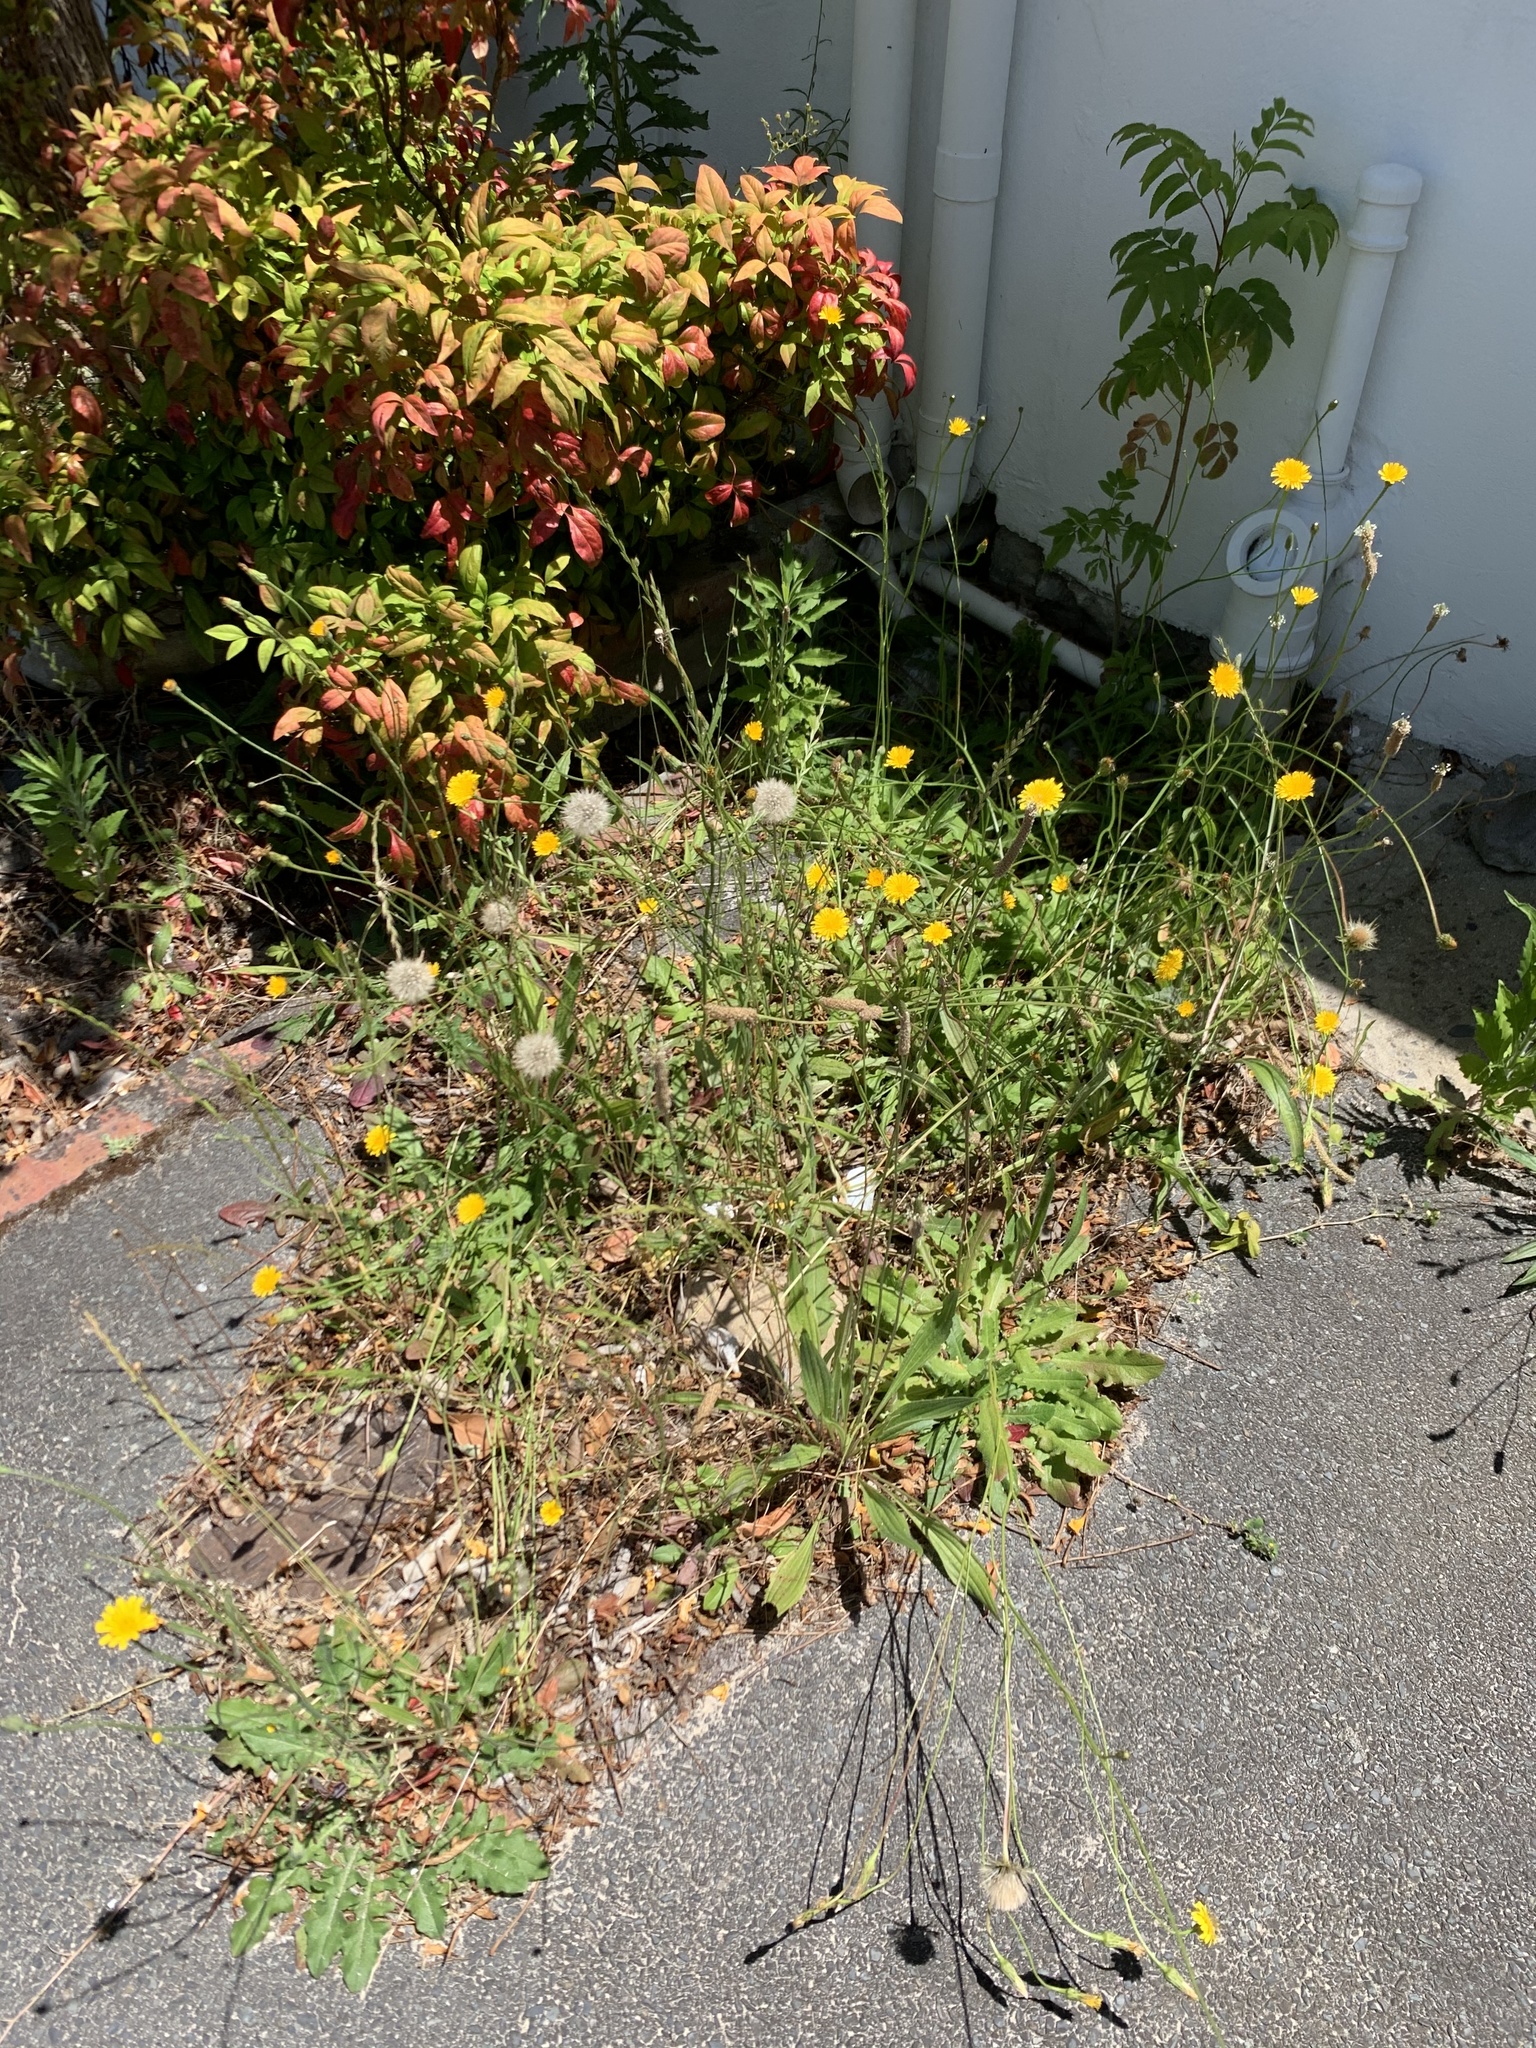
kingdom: Plantae
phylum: Tracheophyta
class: Magnoliopsida
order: Asterales
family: Asteraceae
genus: Hypochaeris
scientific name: Hypochaeris radicata
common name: Flatweed
